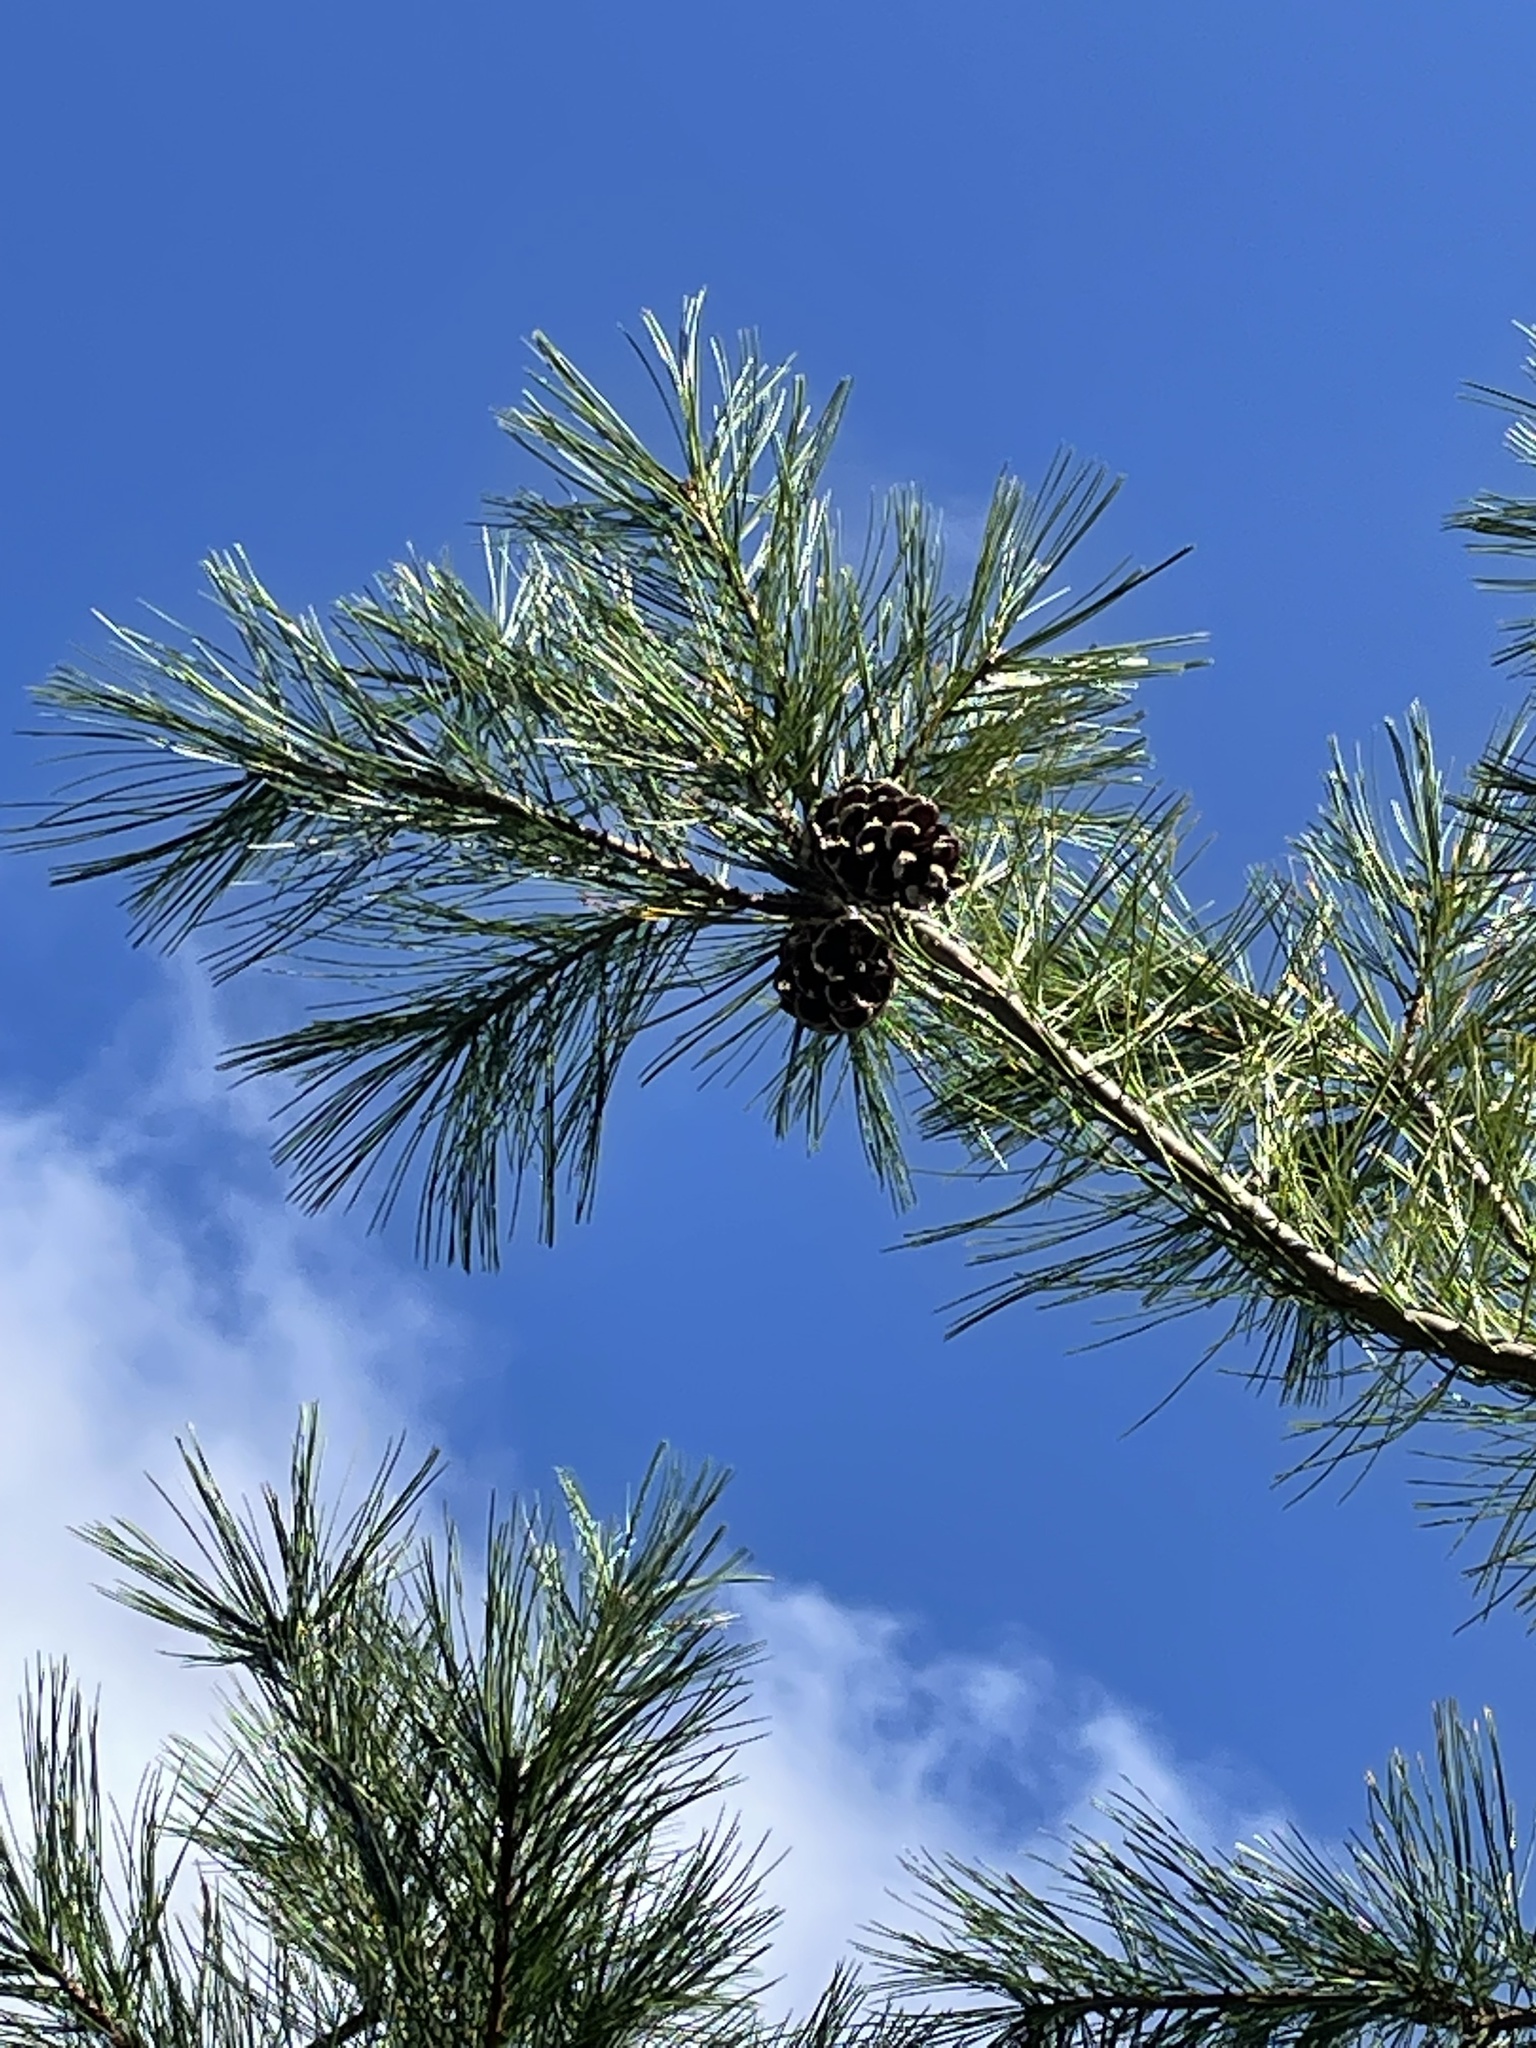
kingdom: Plantae
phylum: Tracheophyta
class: Pinopsida
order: Pinales
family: Pinaceae
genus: Pinus
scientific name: Pinus strobus
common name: Weymouth pine
